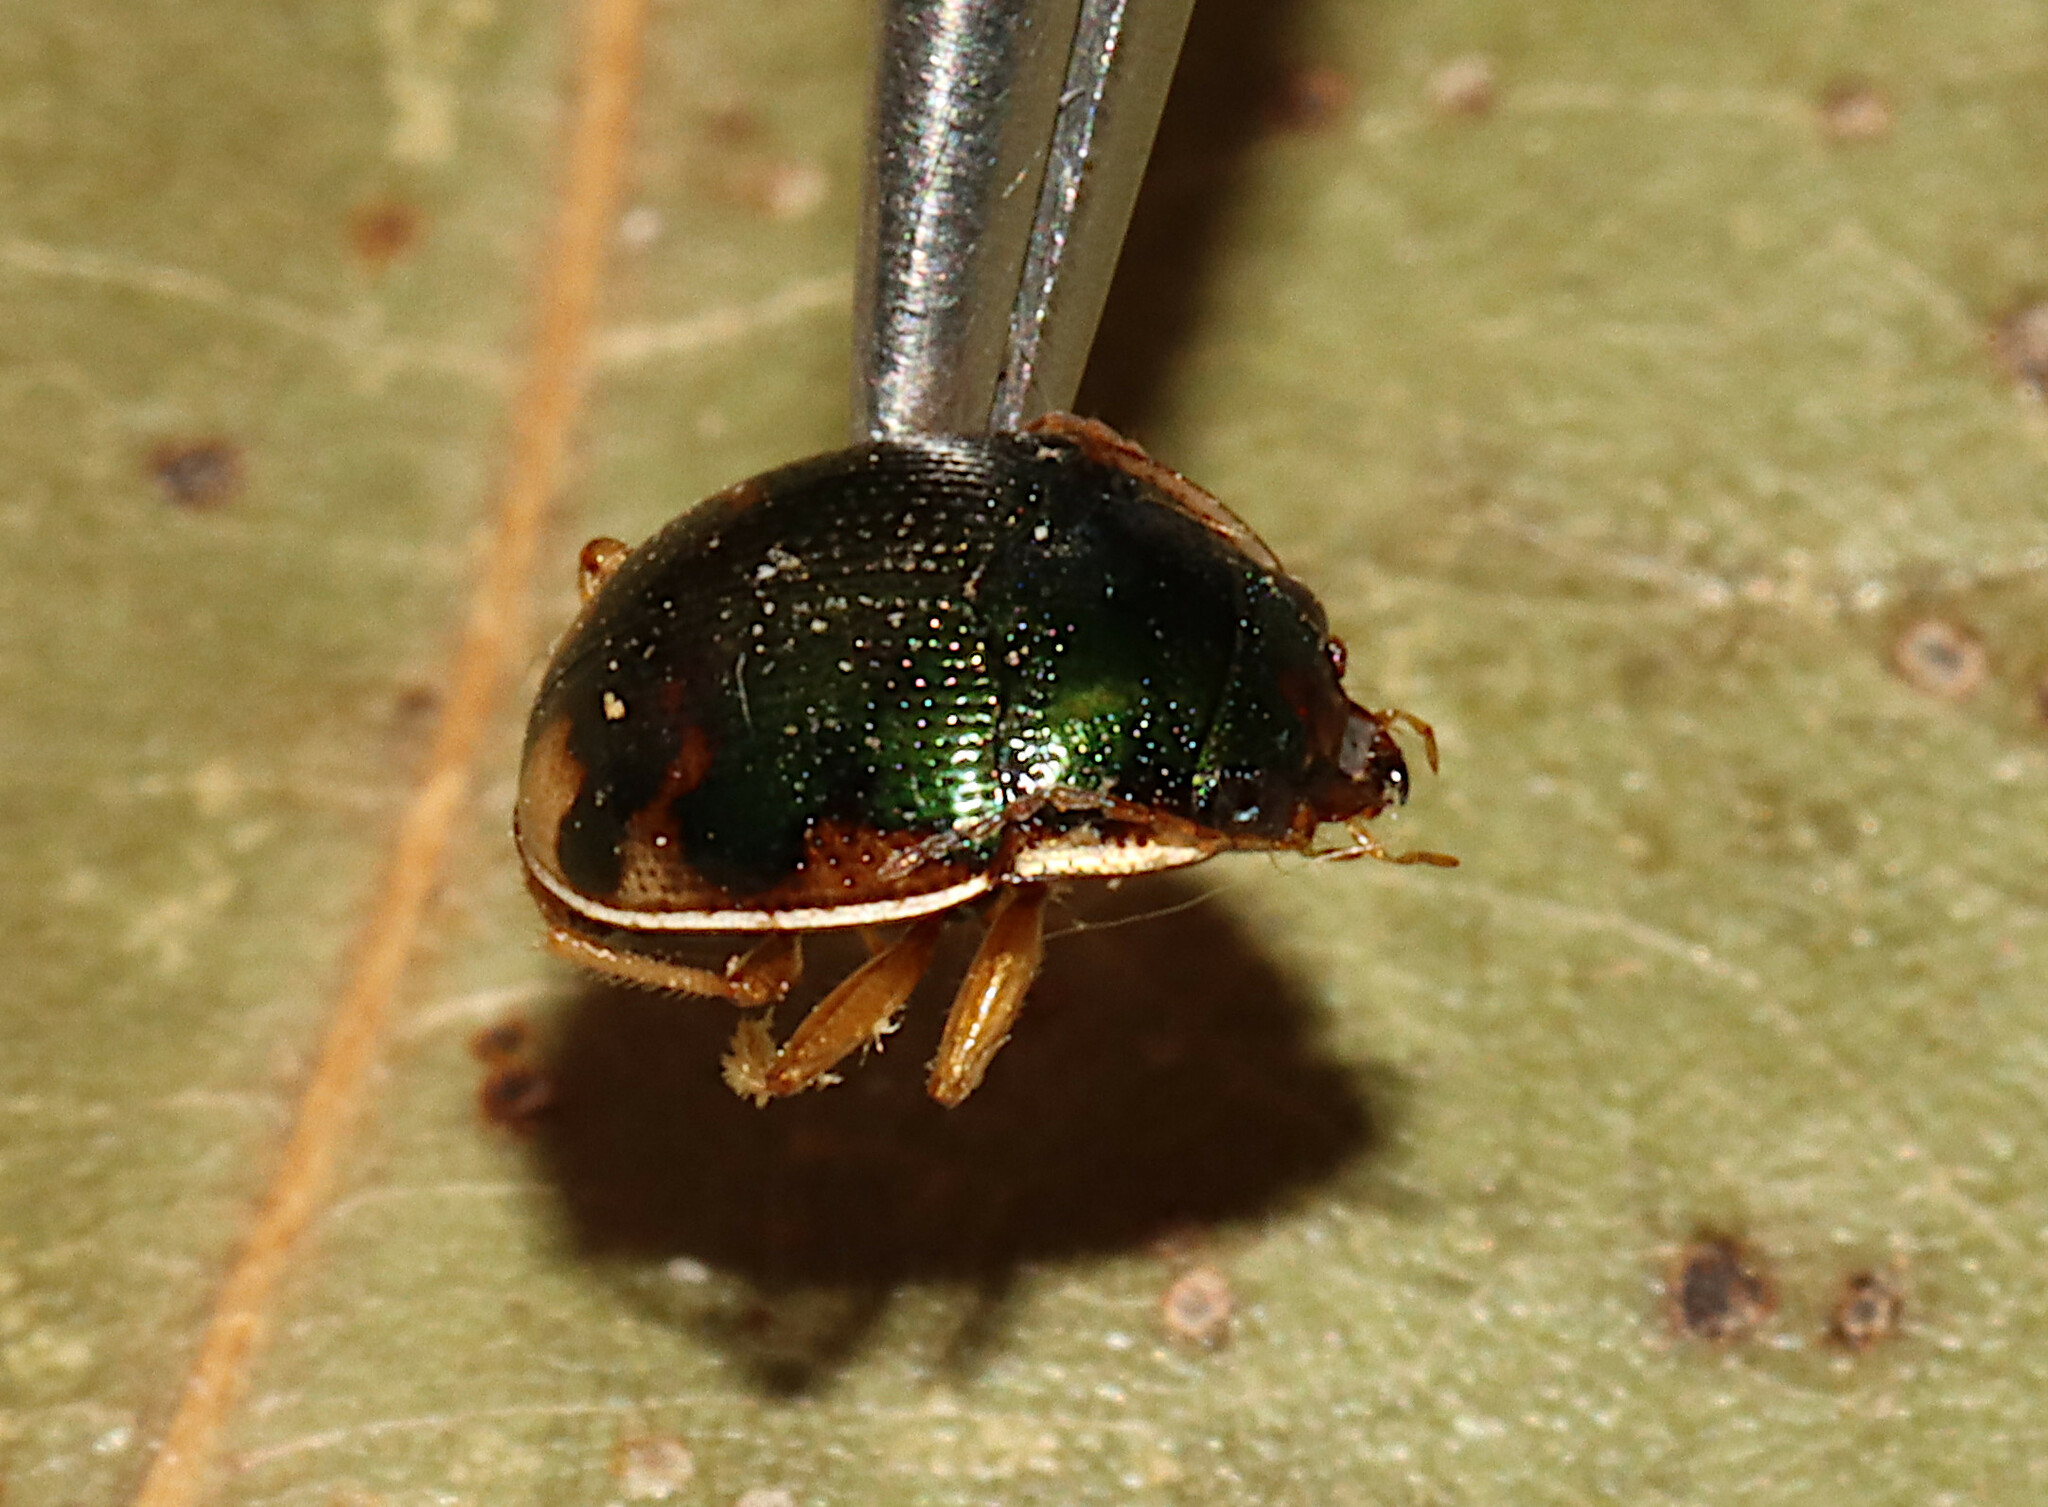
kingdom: Animalia
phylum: Arthropoda
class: Insecta
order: Coleoptera
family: Carabidae
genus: Omophron
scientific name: Omophron americanum
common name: American round sand beetle
